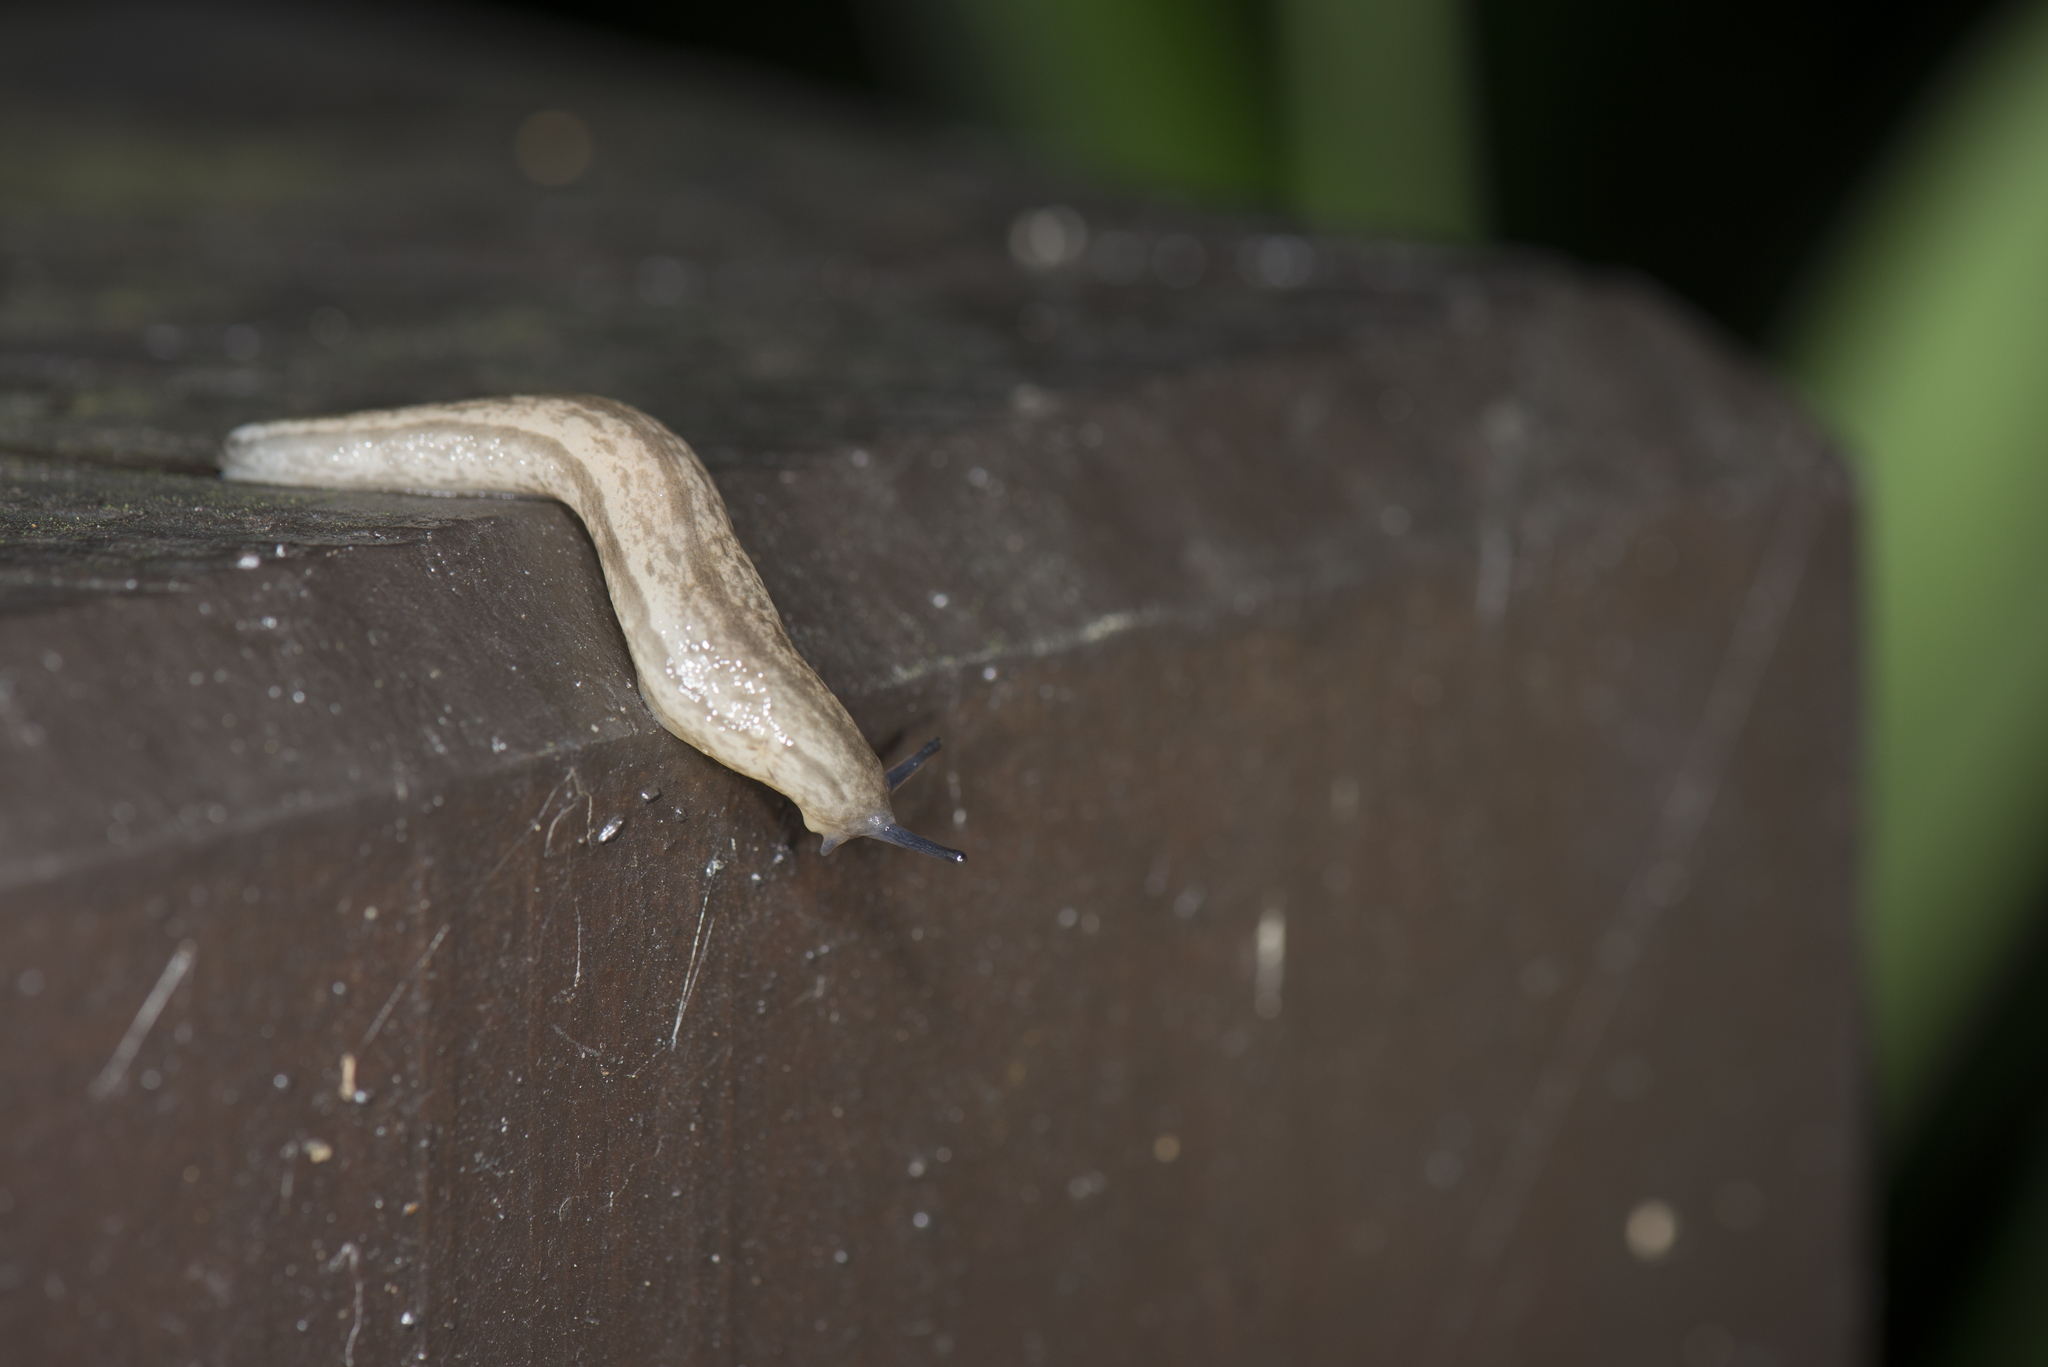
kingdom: Animalia
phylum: Mollusca
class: Gastropoda
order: Stylommatophora
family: Philomycidae
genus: Meghimatium
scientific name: Meghimatium bilineatum
